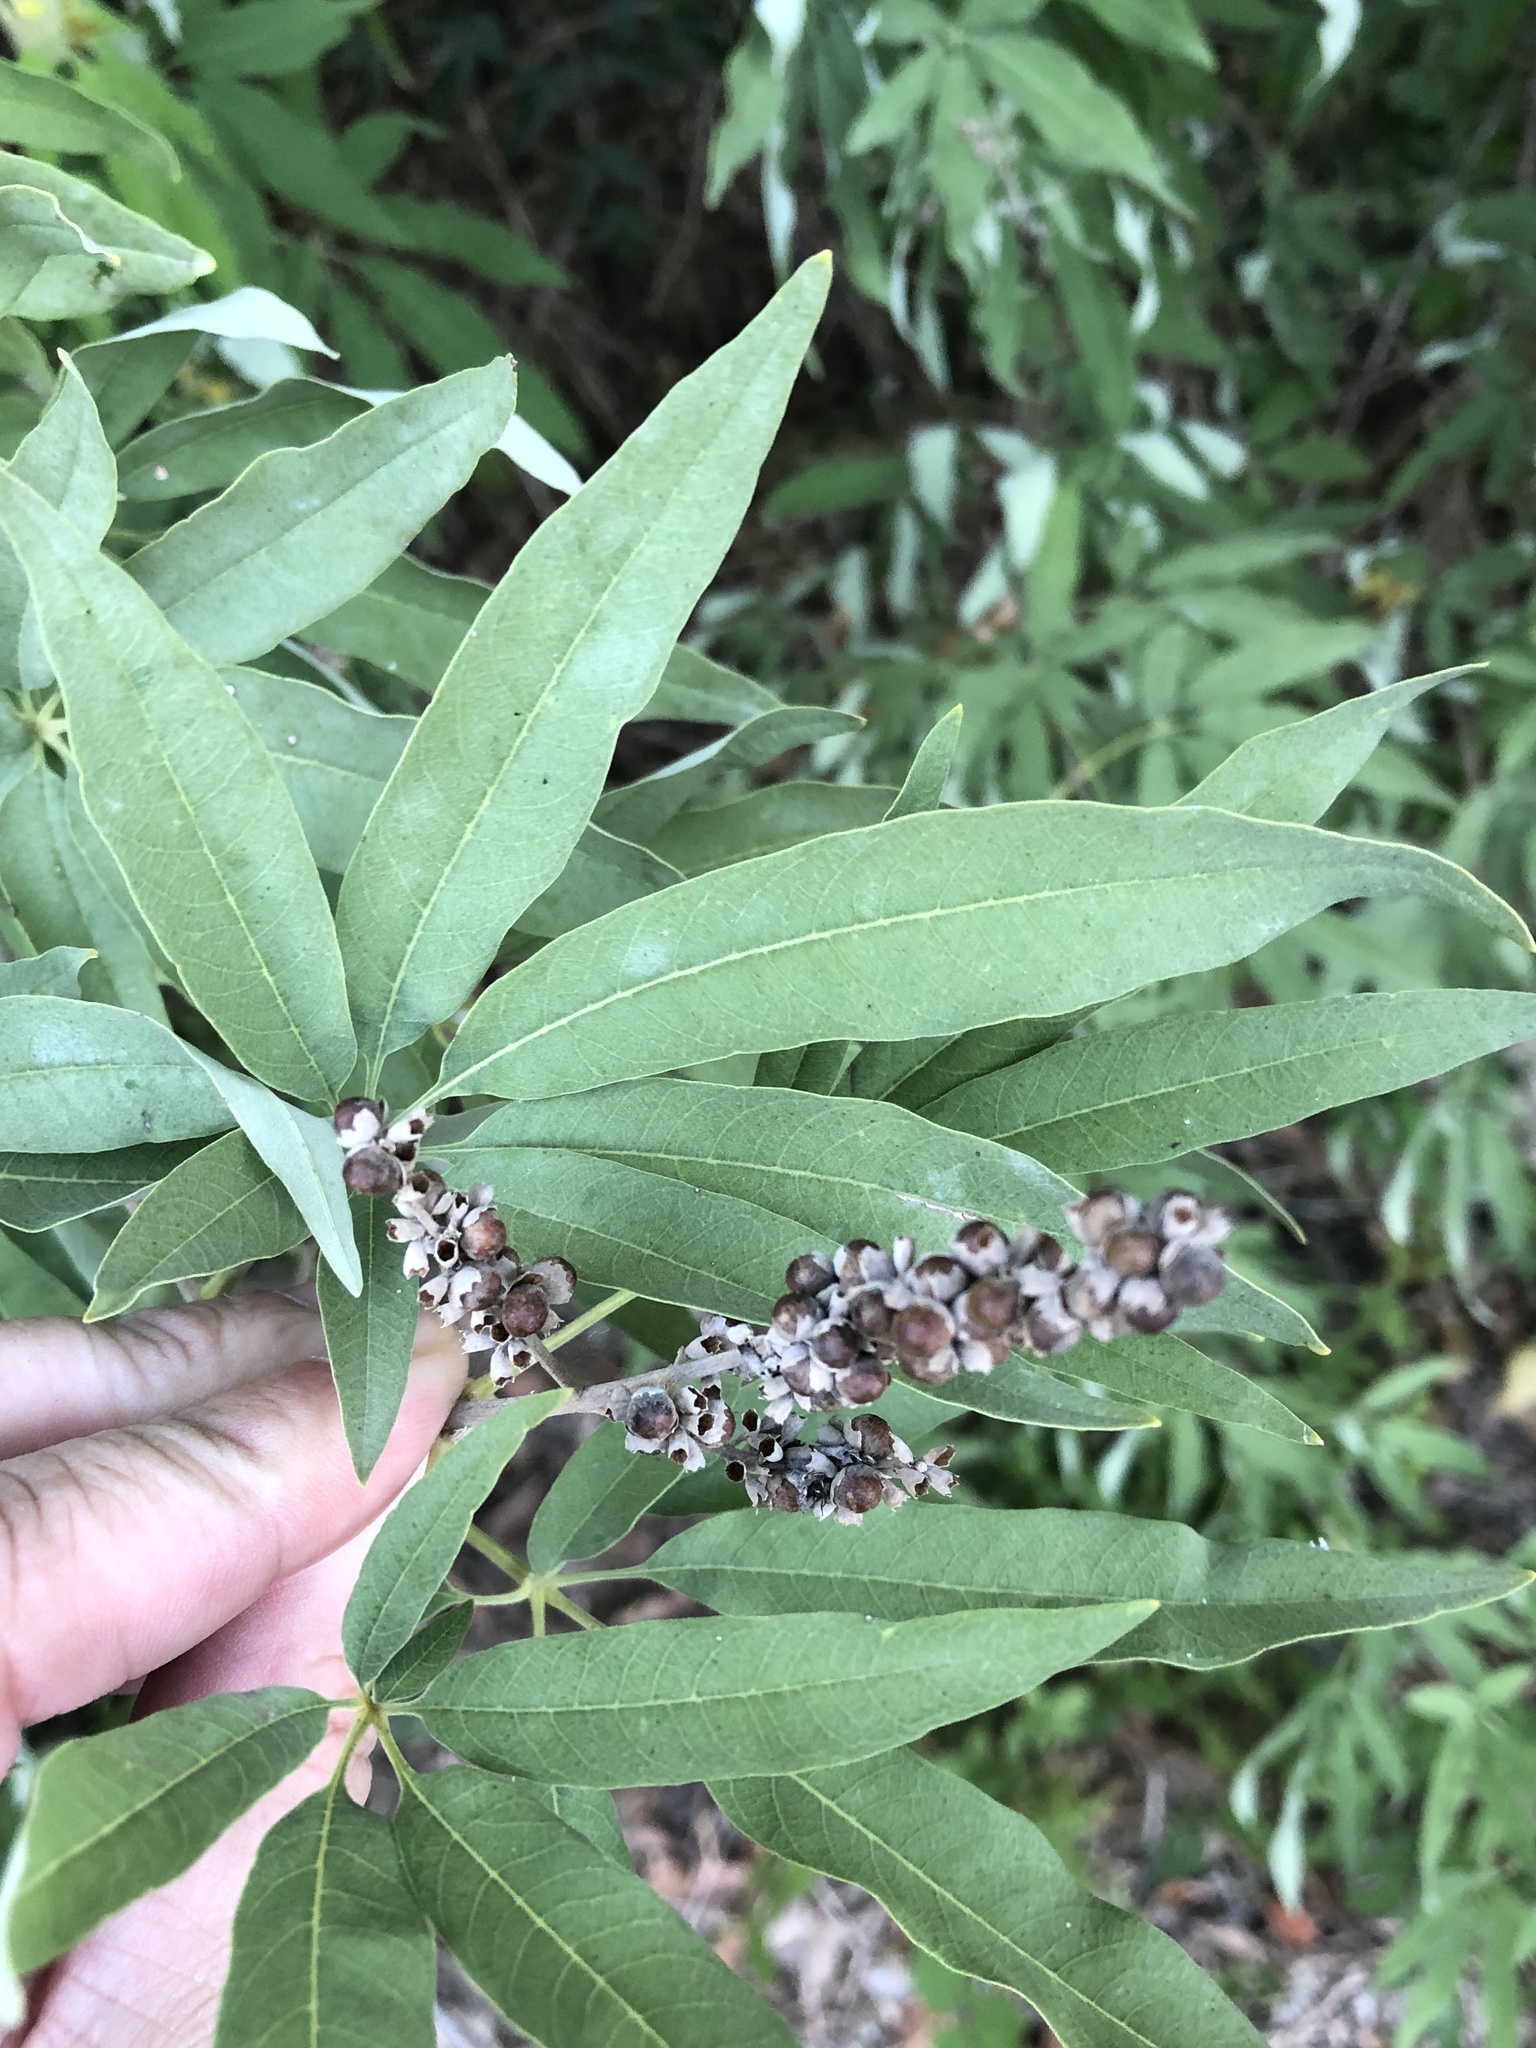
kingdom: Plantae
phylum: Tracheophyta
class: Magnoliopsida
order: Lamiales
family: Lamiaceae
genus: Vitex
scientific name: Vitex agnus-castus
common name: Chasteberry
